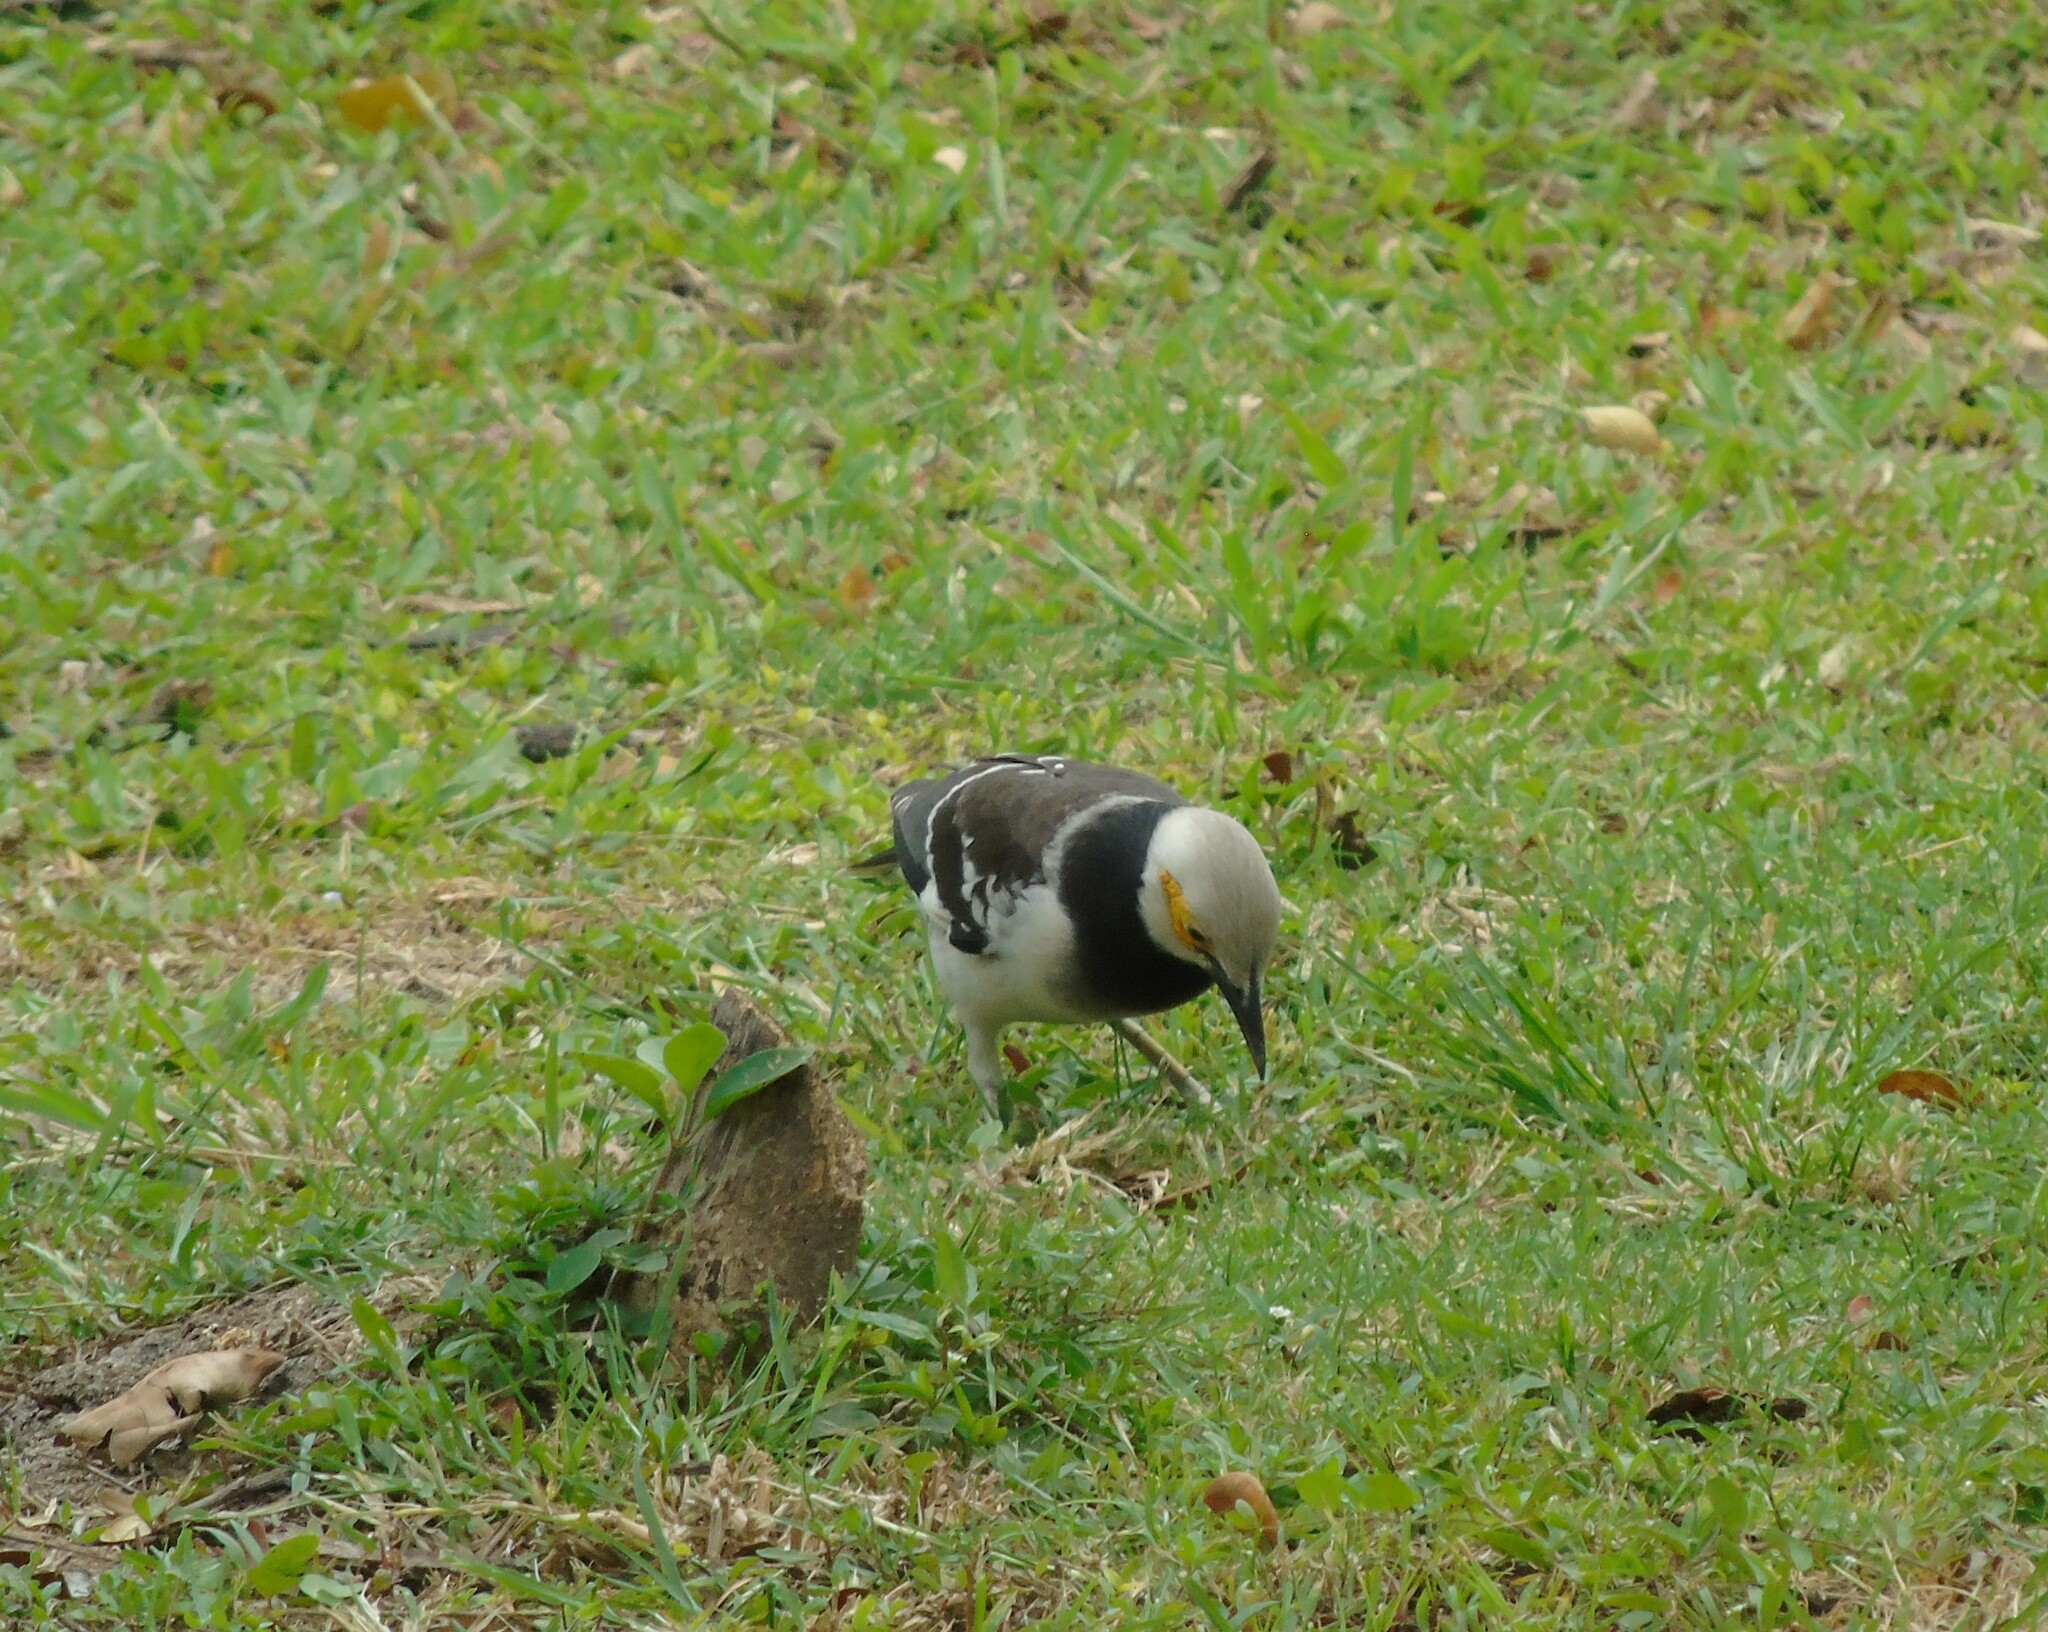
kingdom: Animalia
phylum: Chordata
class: Aves
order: Passeriformes
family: Sturnidae
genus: Gracupica
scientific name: Gracupica nigricollis
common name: Black-collared starling
